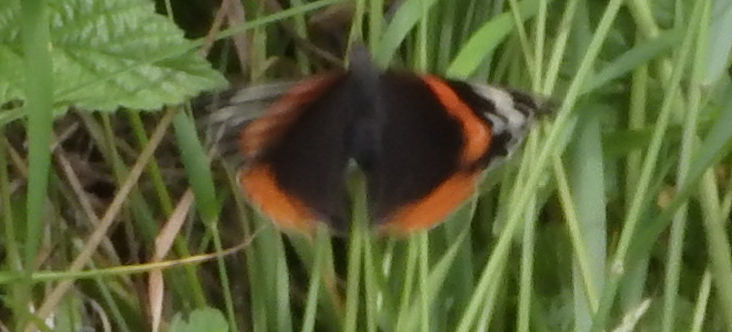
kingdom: Animalia
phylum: Arthropoda
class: Insecta
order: Lepidoptera
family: Nymphalidae
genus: Vanessa
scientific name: Vanessa atalanta
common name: Red admiral
